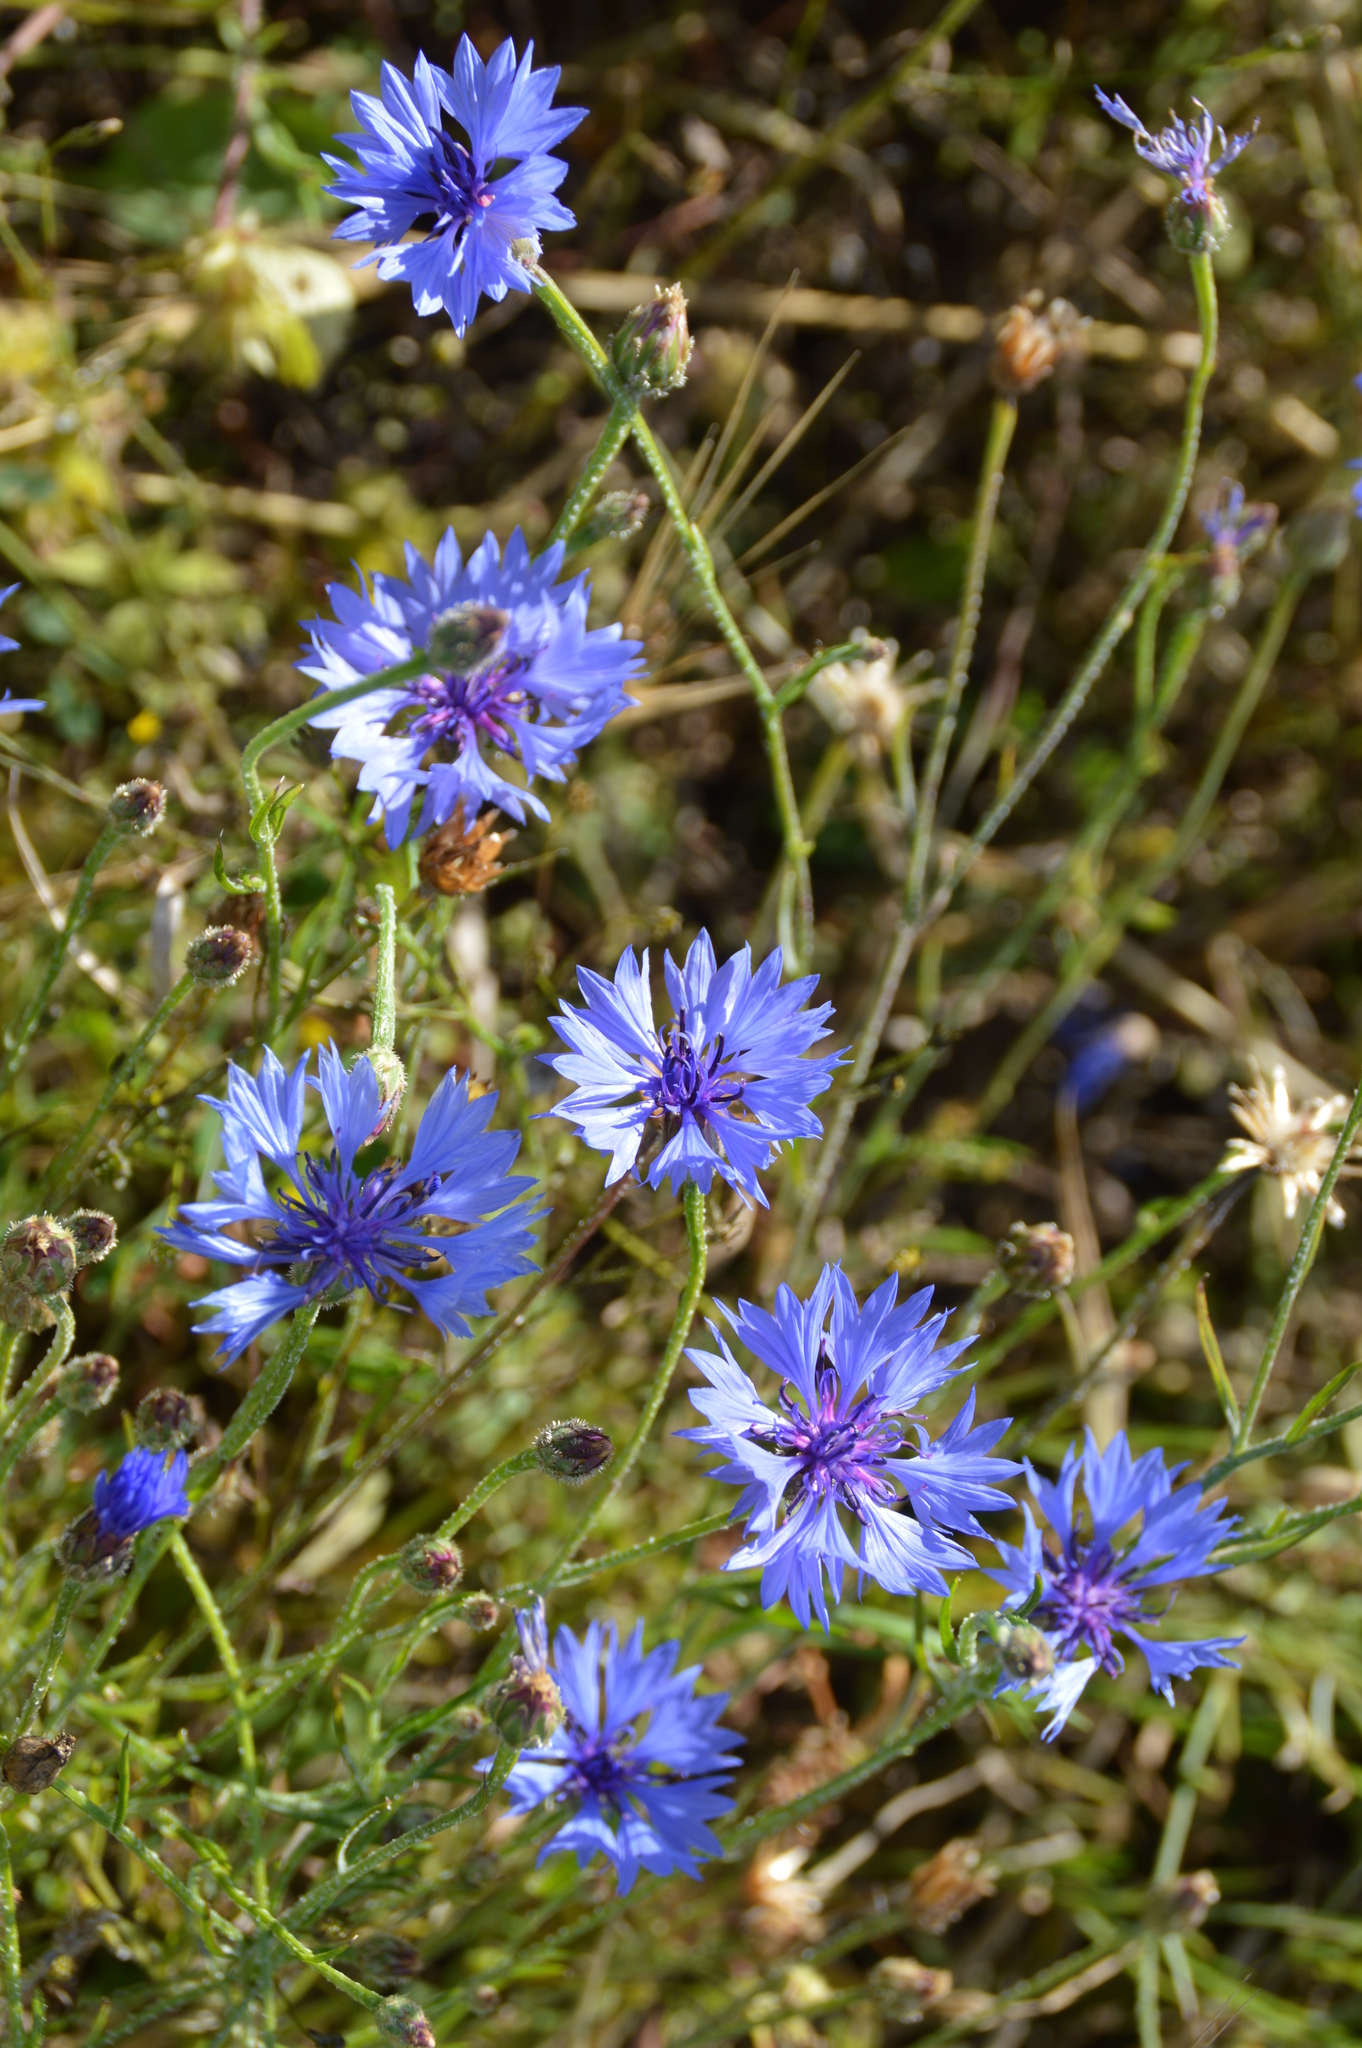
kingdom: Plantae
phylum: Tracheophyta
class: Magnoliopsida
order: Asterales
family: Asteraceae
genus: Centaurea
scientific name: Centaurea cyanus
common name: Cornflower
